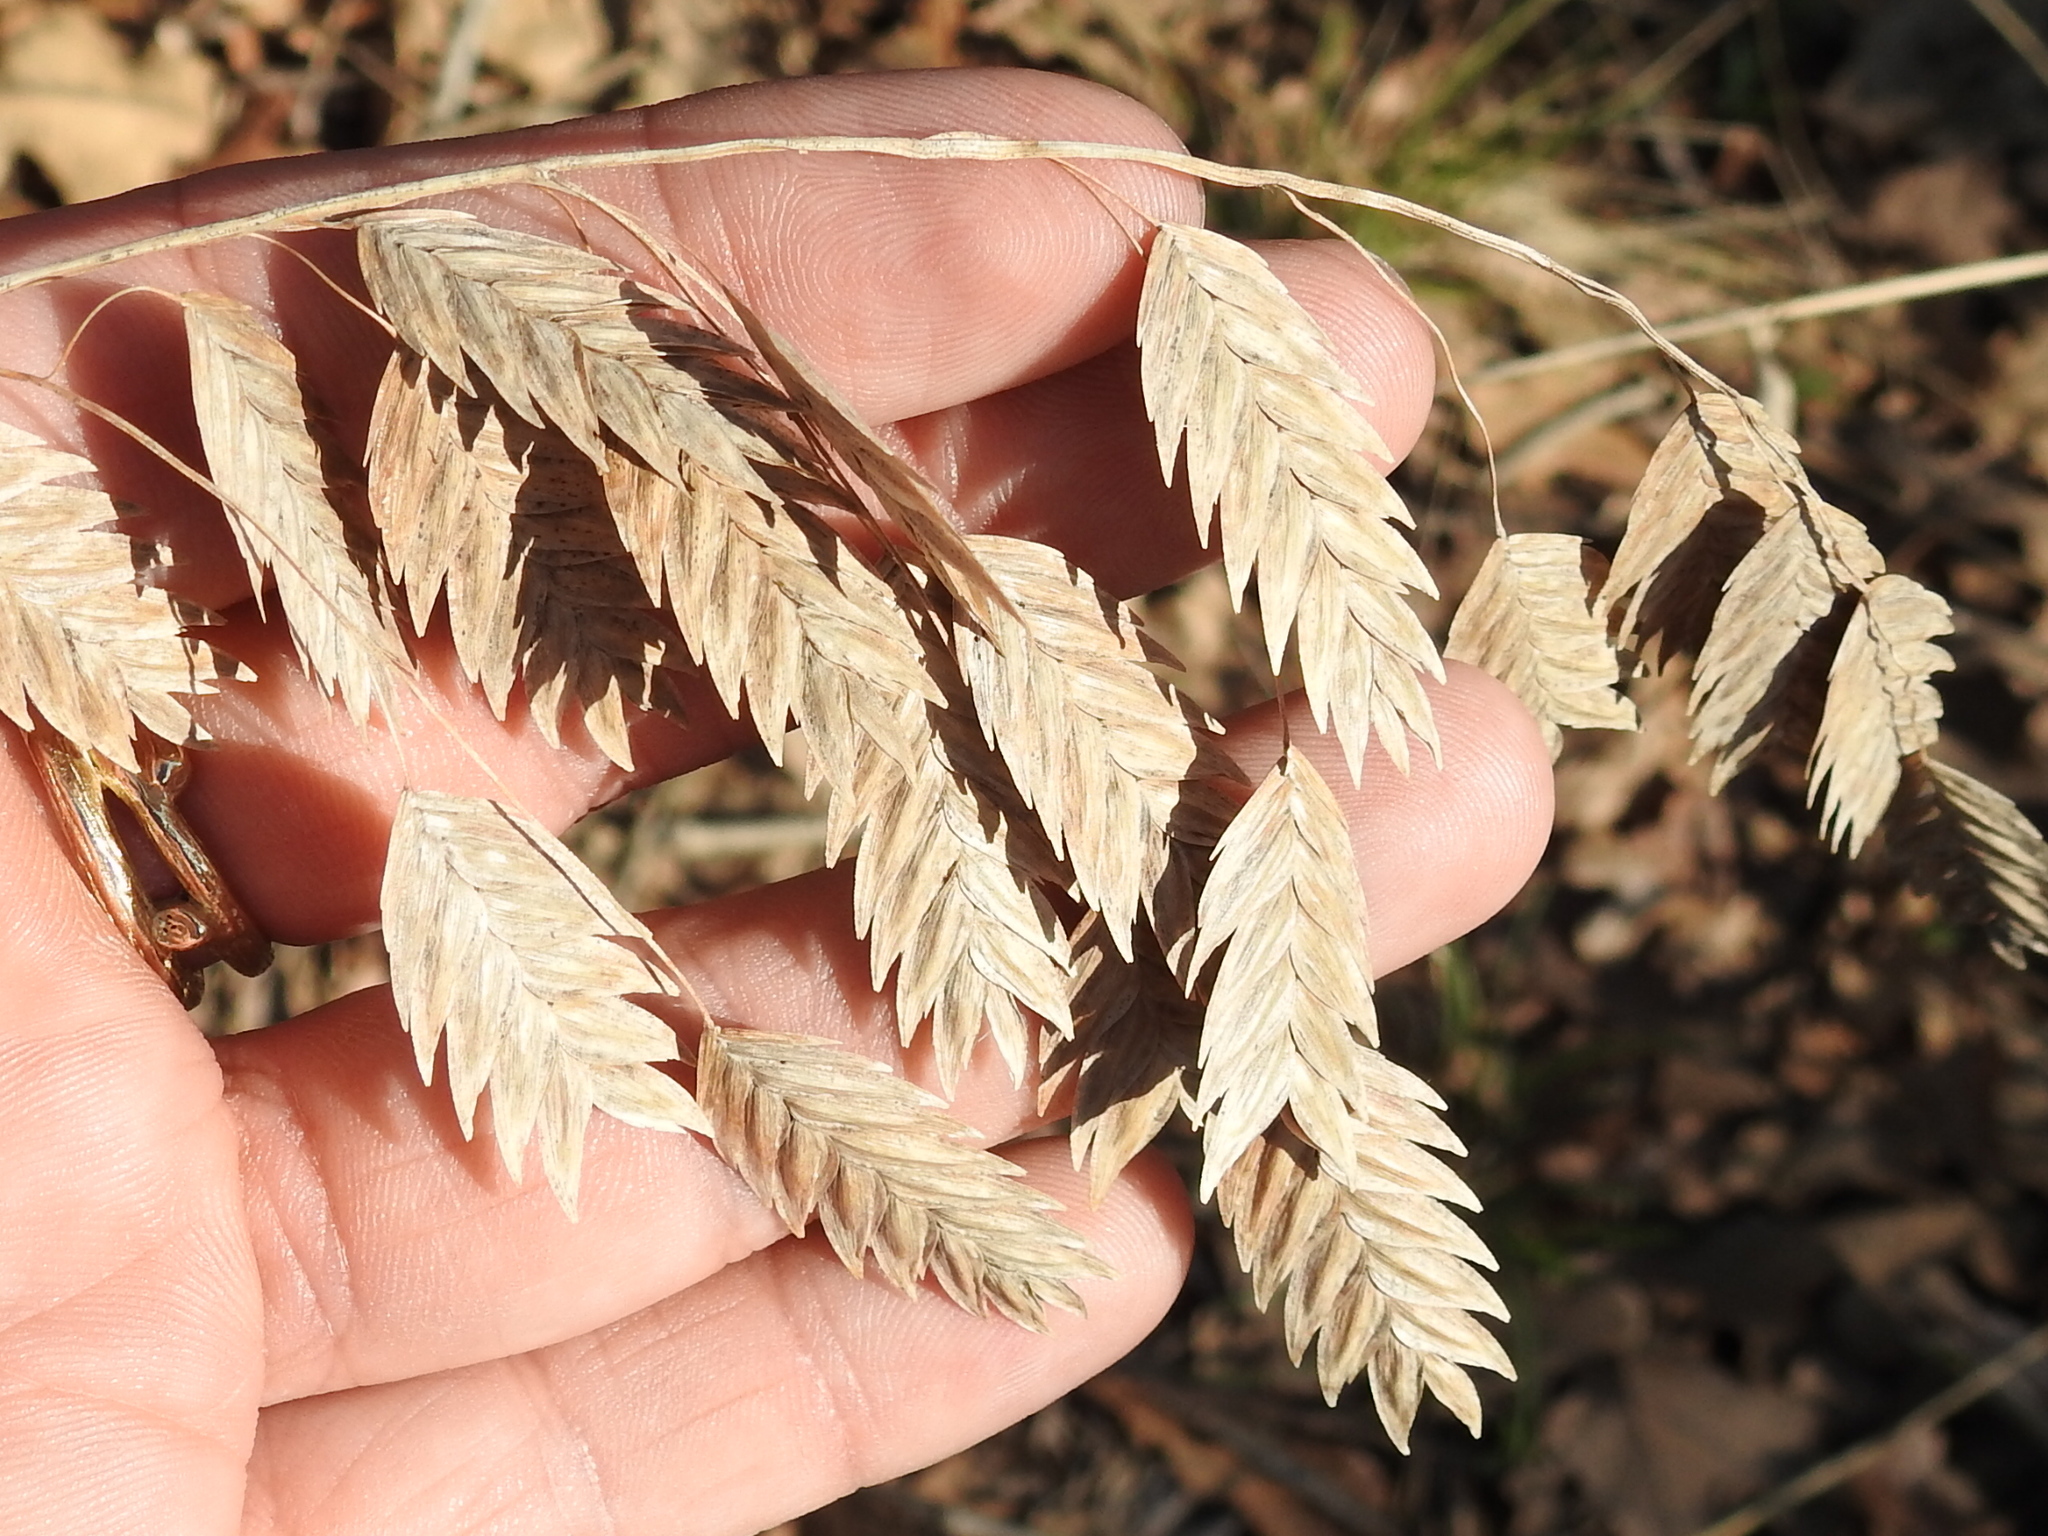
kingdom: Plantae
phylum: Tracheophyta
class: Liliopsida
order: Poales
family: Poaceae
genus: Chasmanthium
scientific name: Chasmanthium latifolium
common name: Broad-leaved chasmanthium
